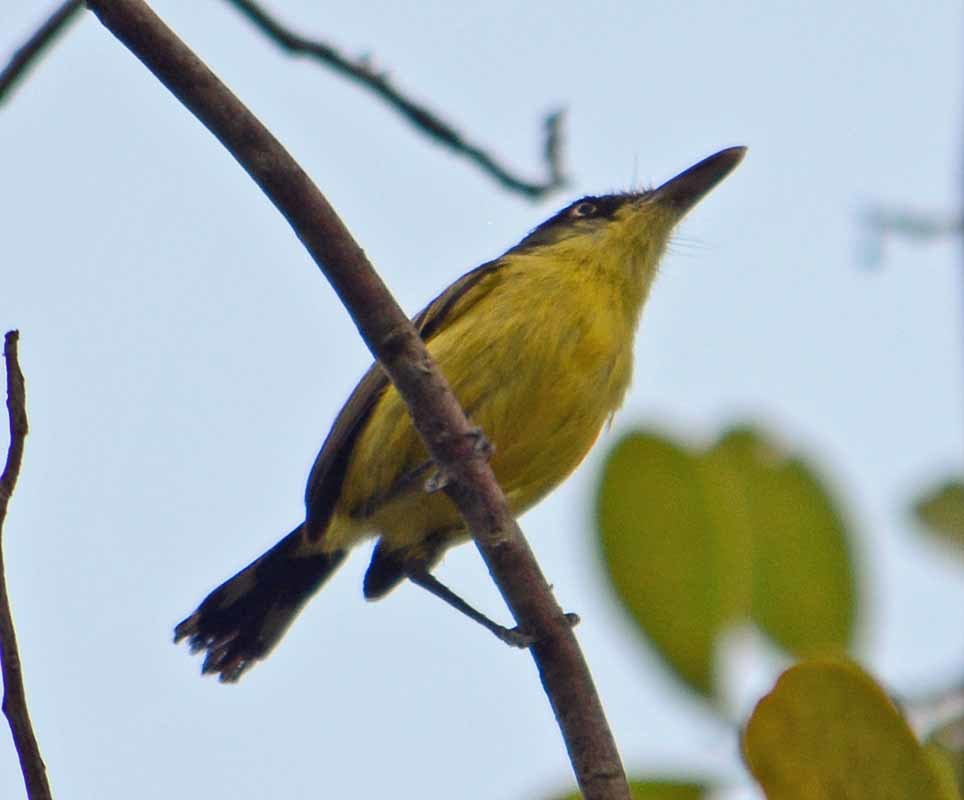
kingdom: Animalia
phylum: Chordata
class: Aves
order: Passeriformes
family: Tyrannidae
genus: Todirostrum
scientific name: Todirostrum cinereum
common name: Common tody-flycatcher
